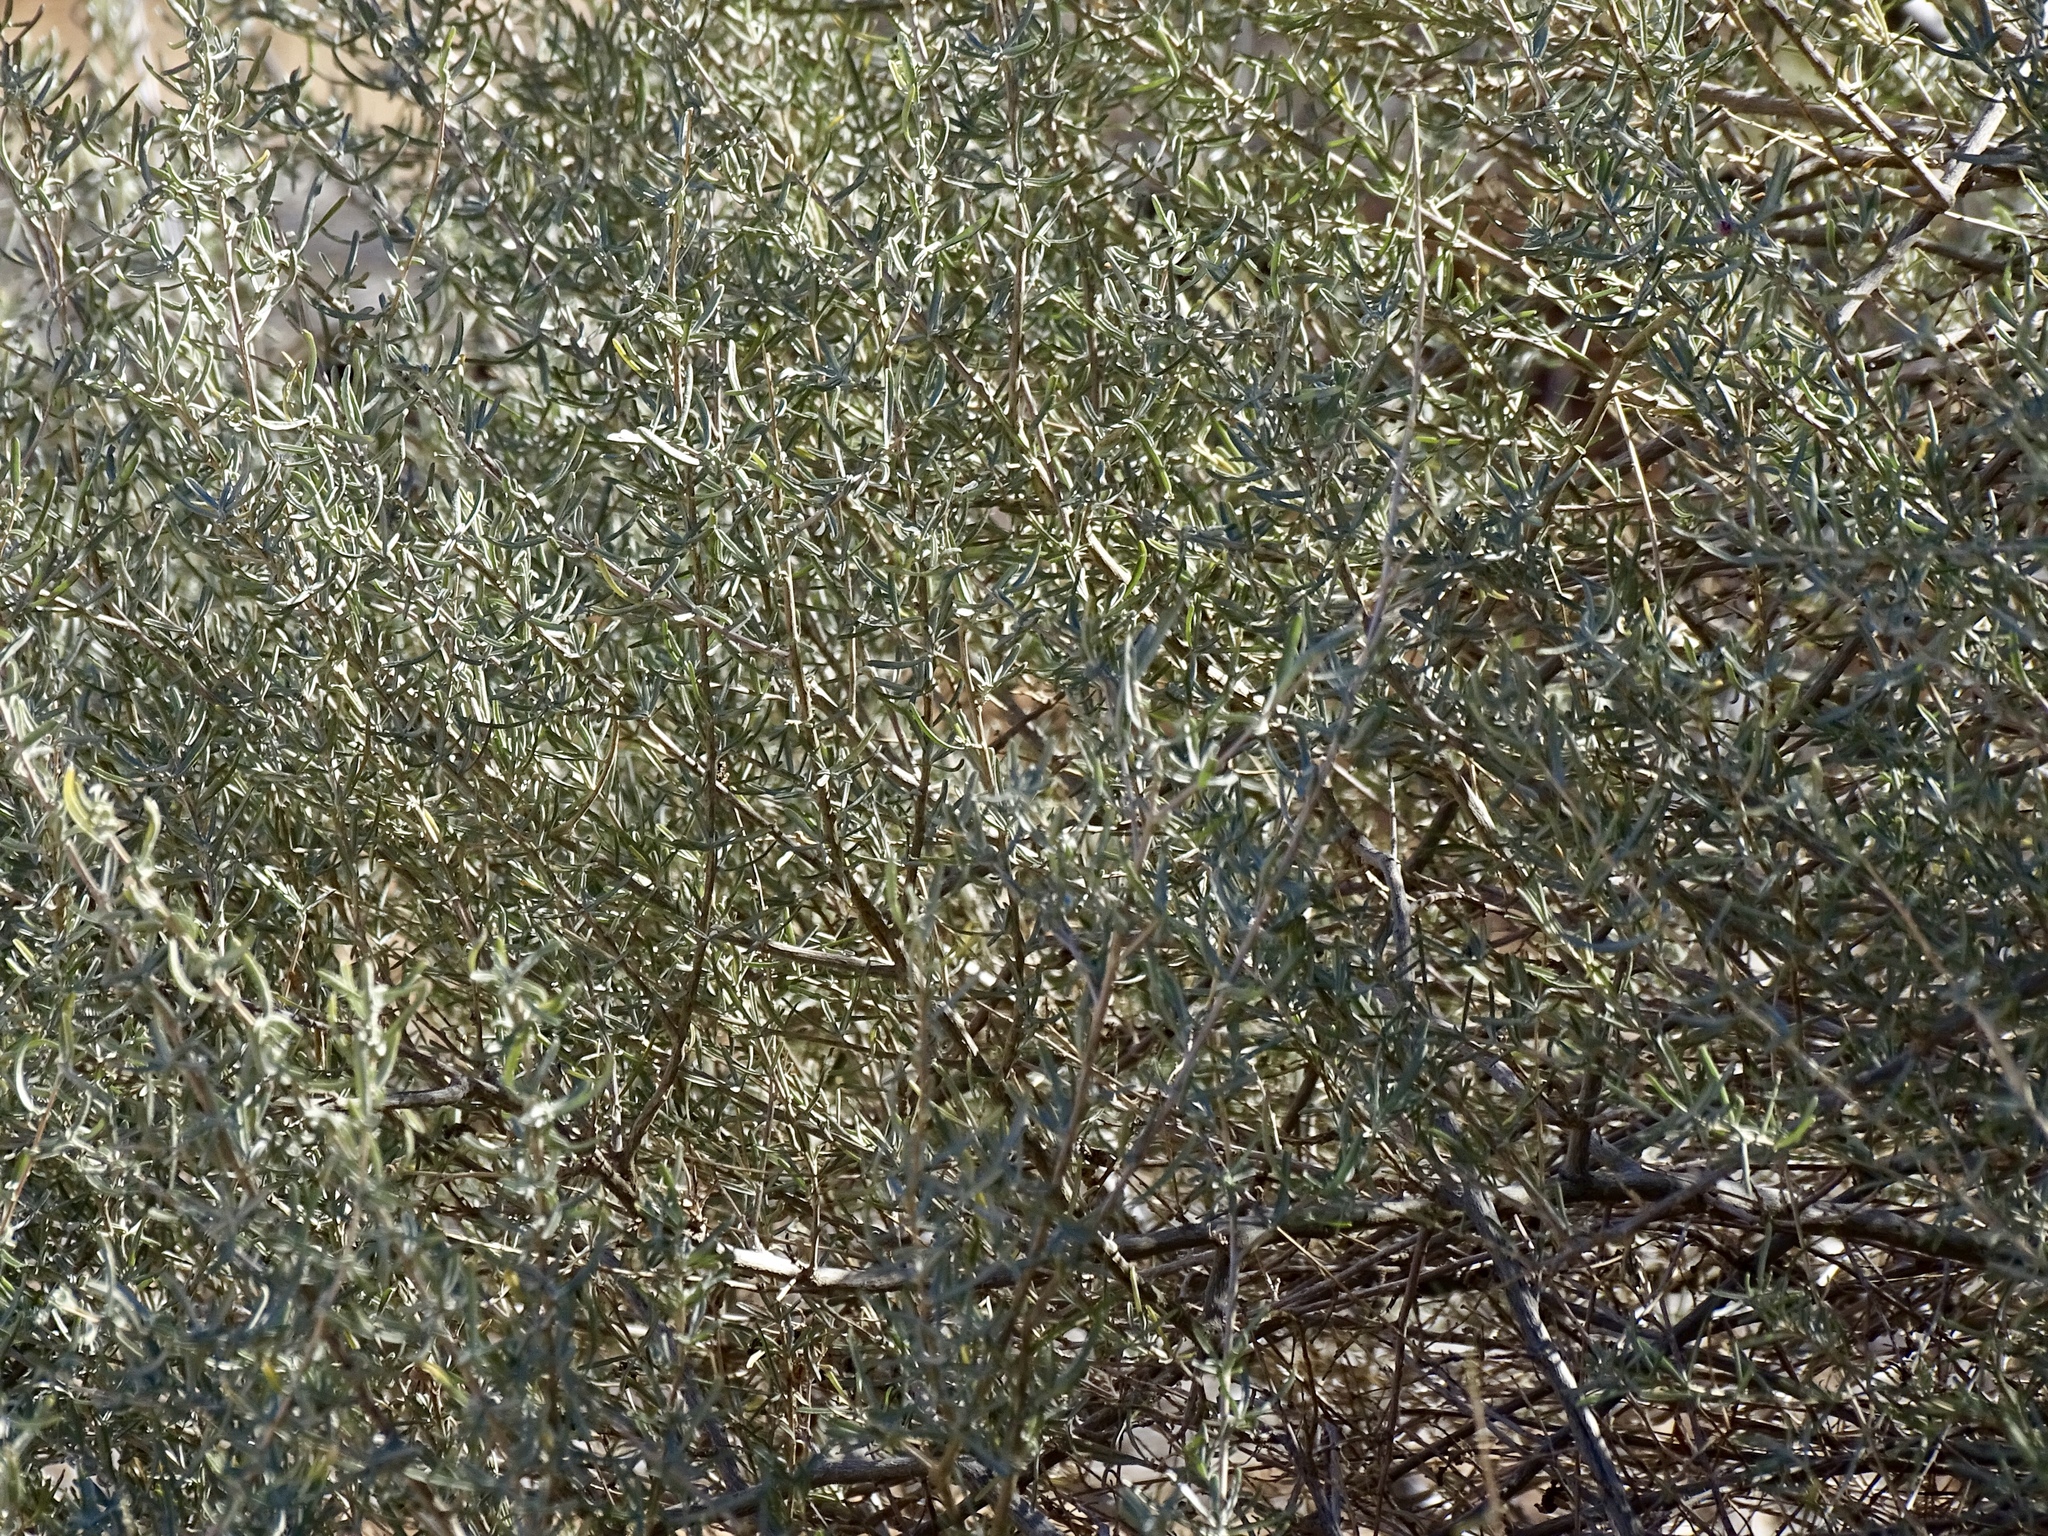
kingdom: Plantae
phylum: Tracheophyta
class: Magnoliopsida
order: Caryophyllales
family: Amaranthaceae
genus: Atriplex
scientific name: Atriplex canescens
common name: Four-wing saltbush
